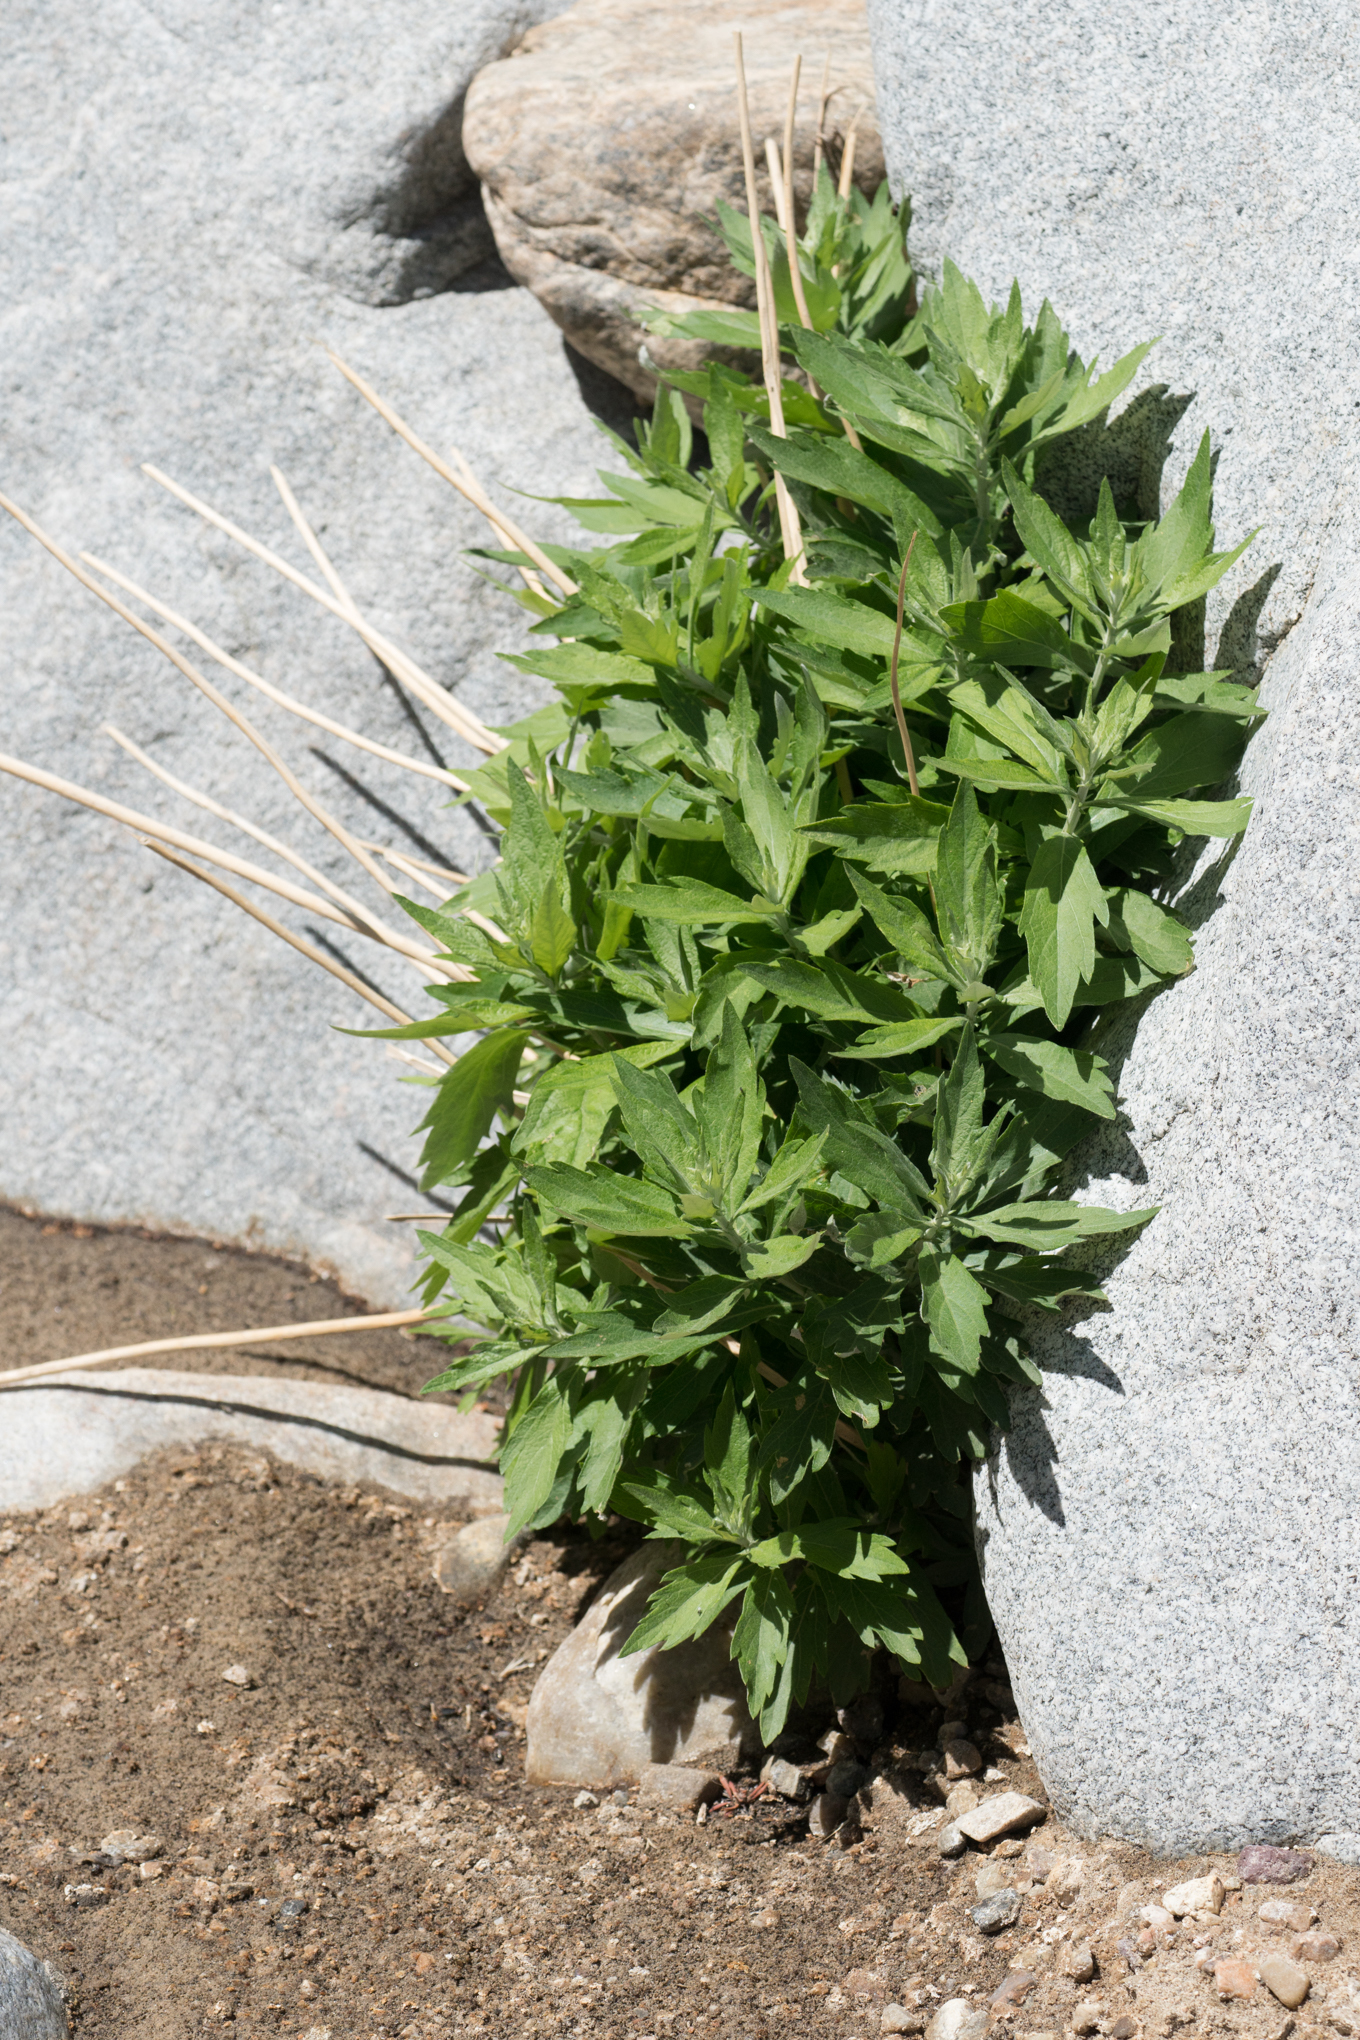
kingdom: Plantae
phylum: Tracheophyta
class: Magnoliopsida
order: Asterales
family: Asteraceae
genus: Artemisia
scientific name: Artemisia douglasiana
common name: Northwest mugwort
